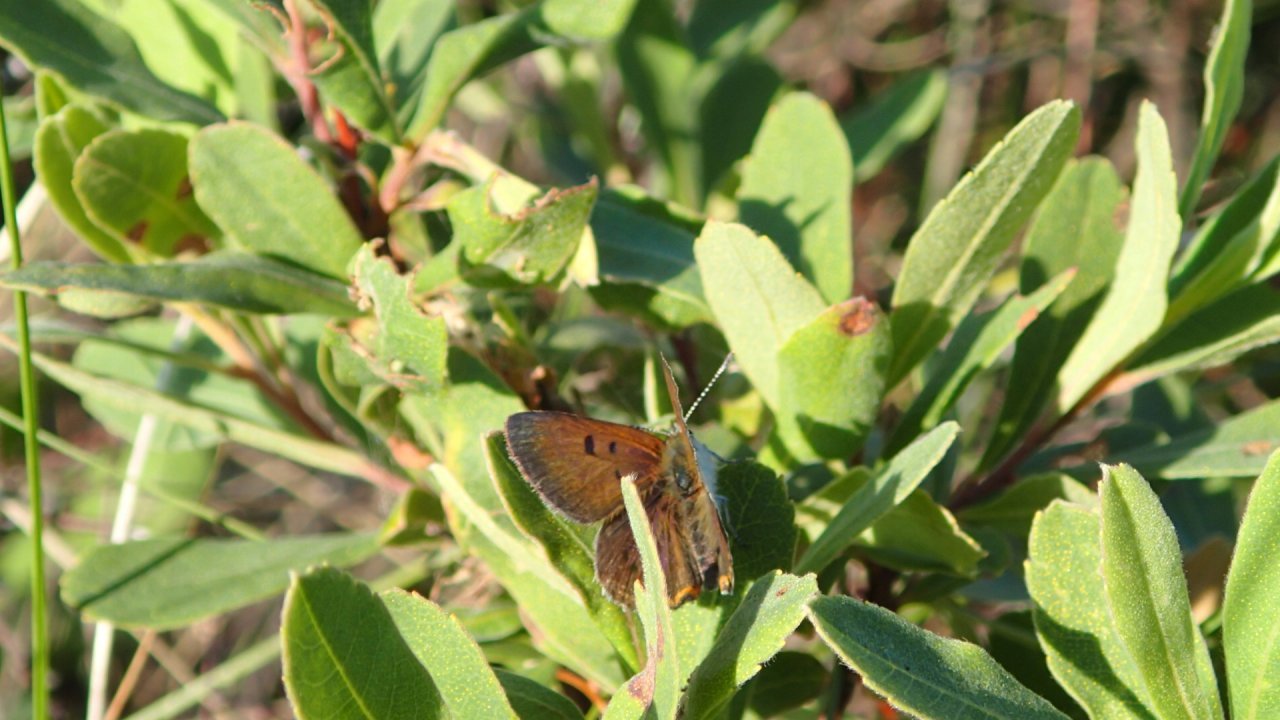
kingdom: Animalia
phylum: Arthropoda
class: Insecta
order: Lepidoptera
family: Lycaenidae
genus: Tharsalea
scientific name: Tharsalea epixanthe
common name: Bog copper
